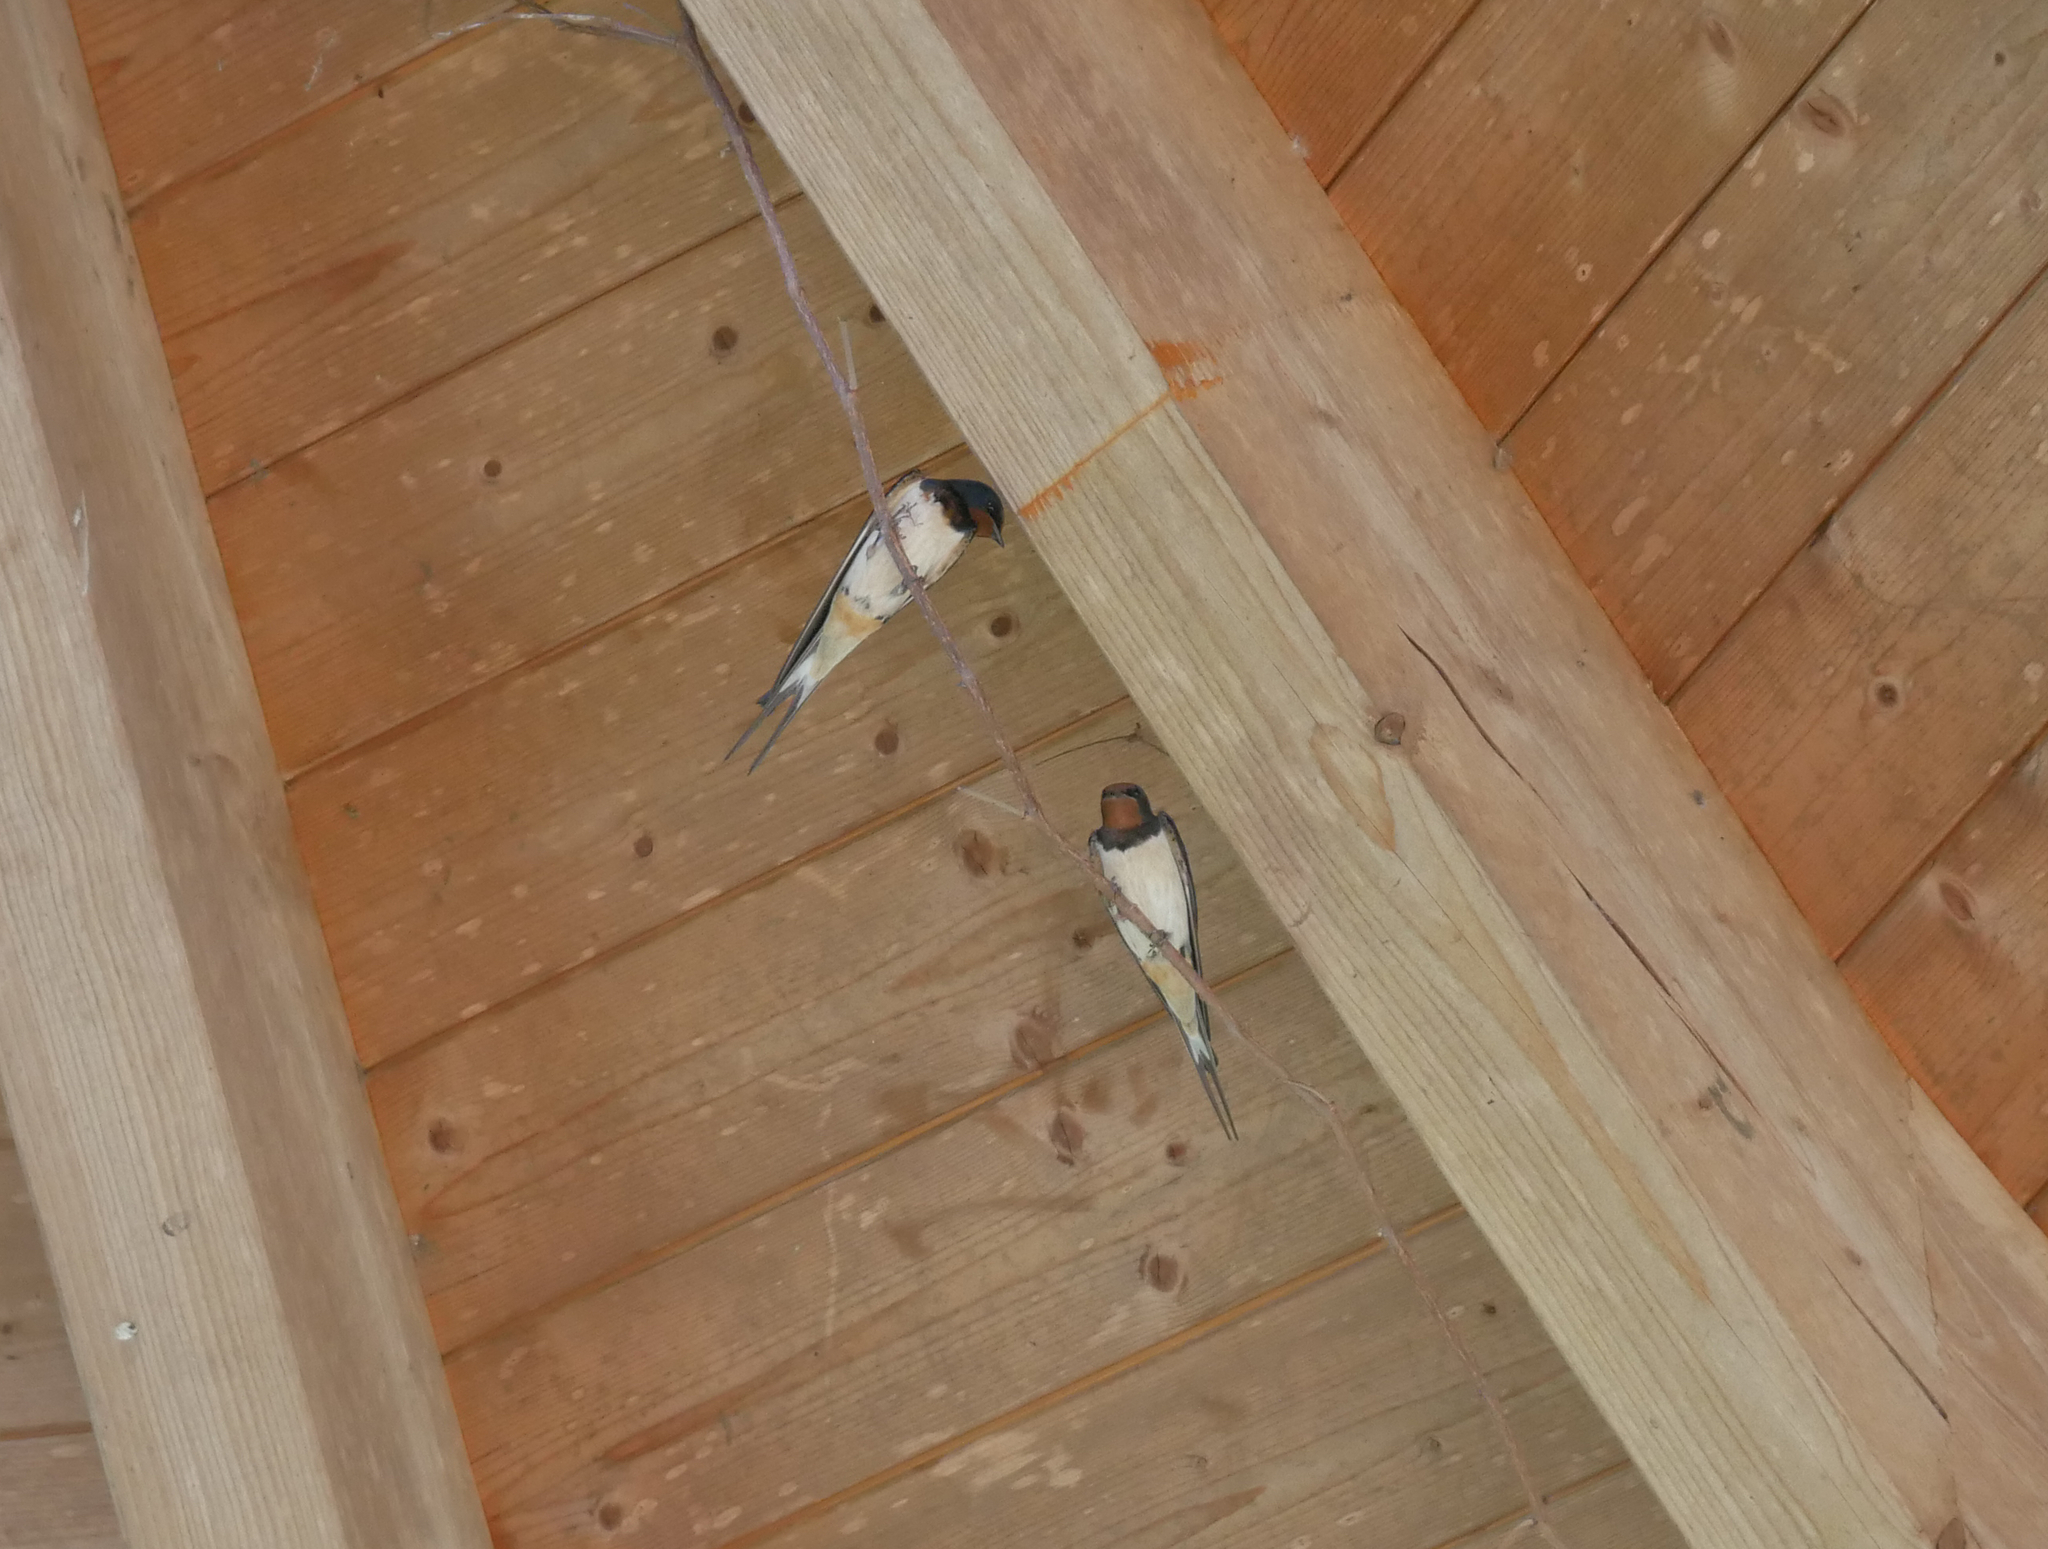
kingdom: Animalia
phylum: Chordata
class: Aves
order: Passeriformes
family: Hirundinidae
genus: Hirundo
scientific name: Hirundo rustica
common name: Barn swallow
